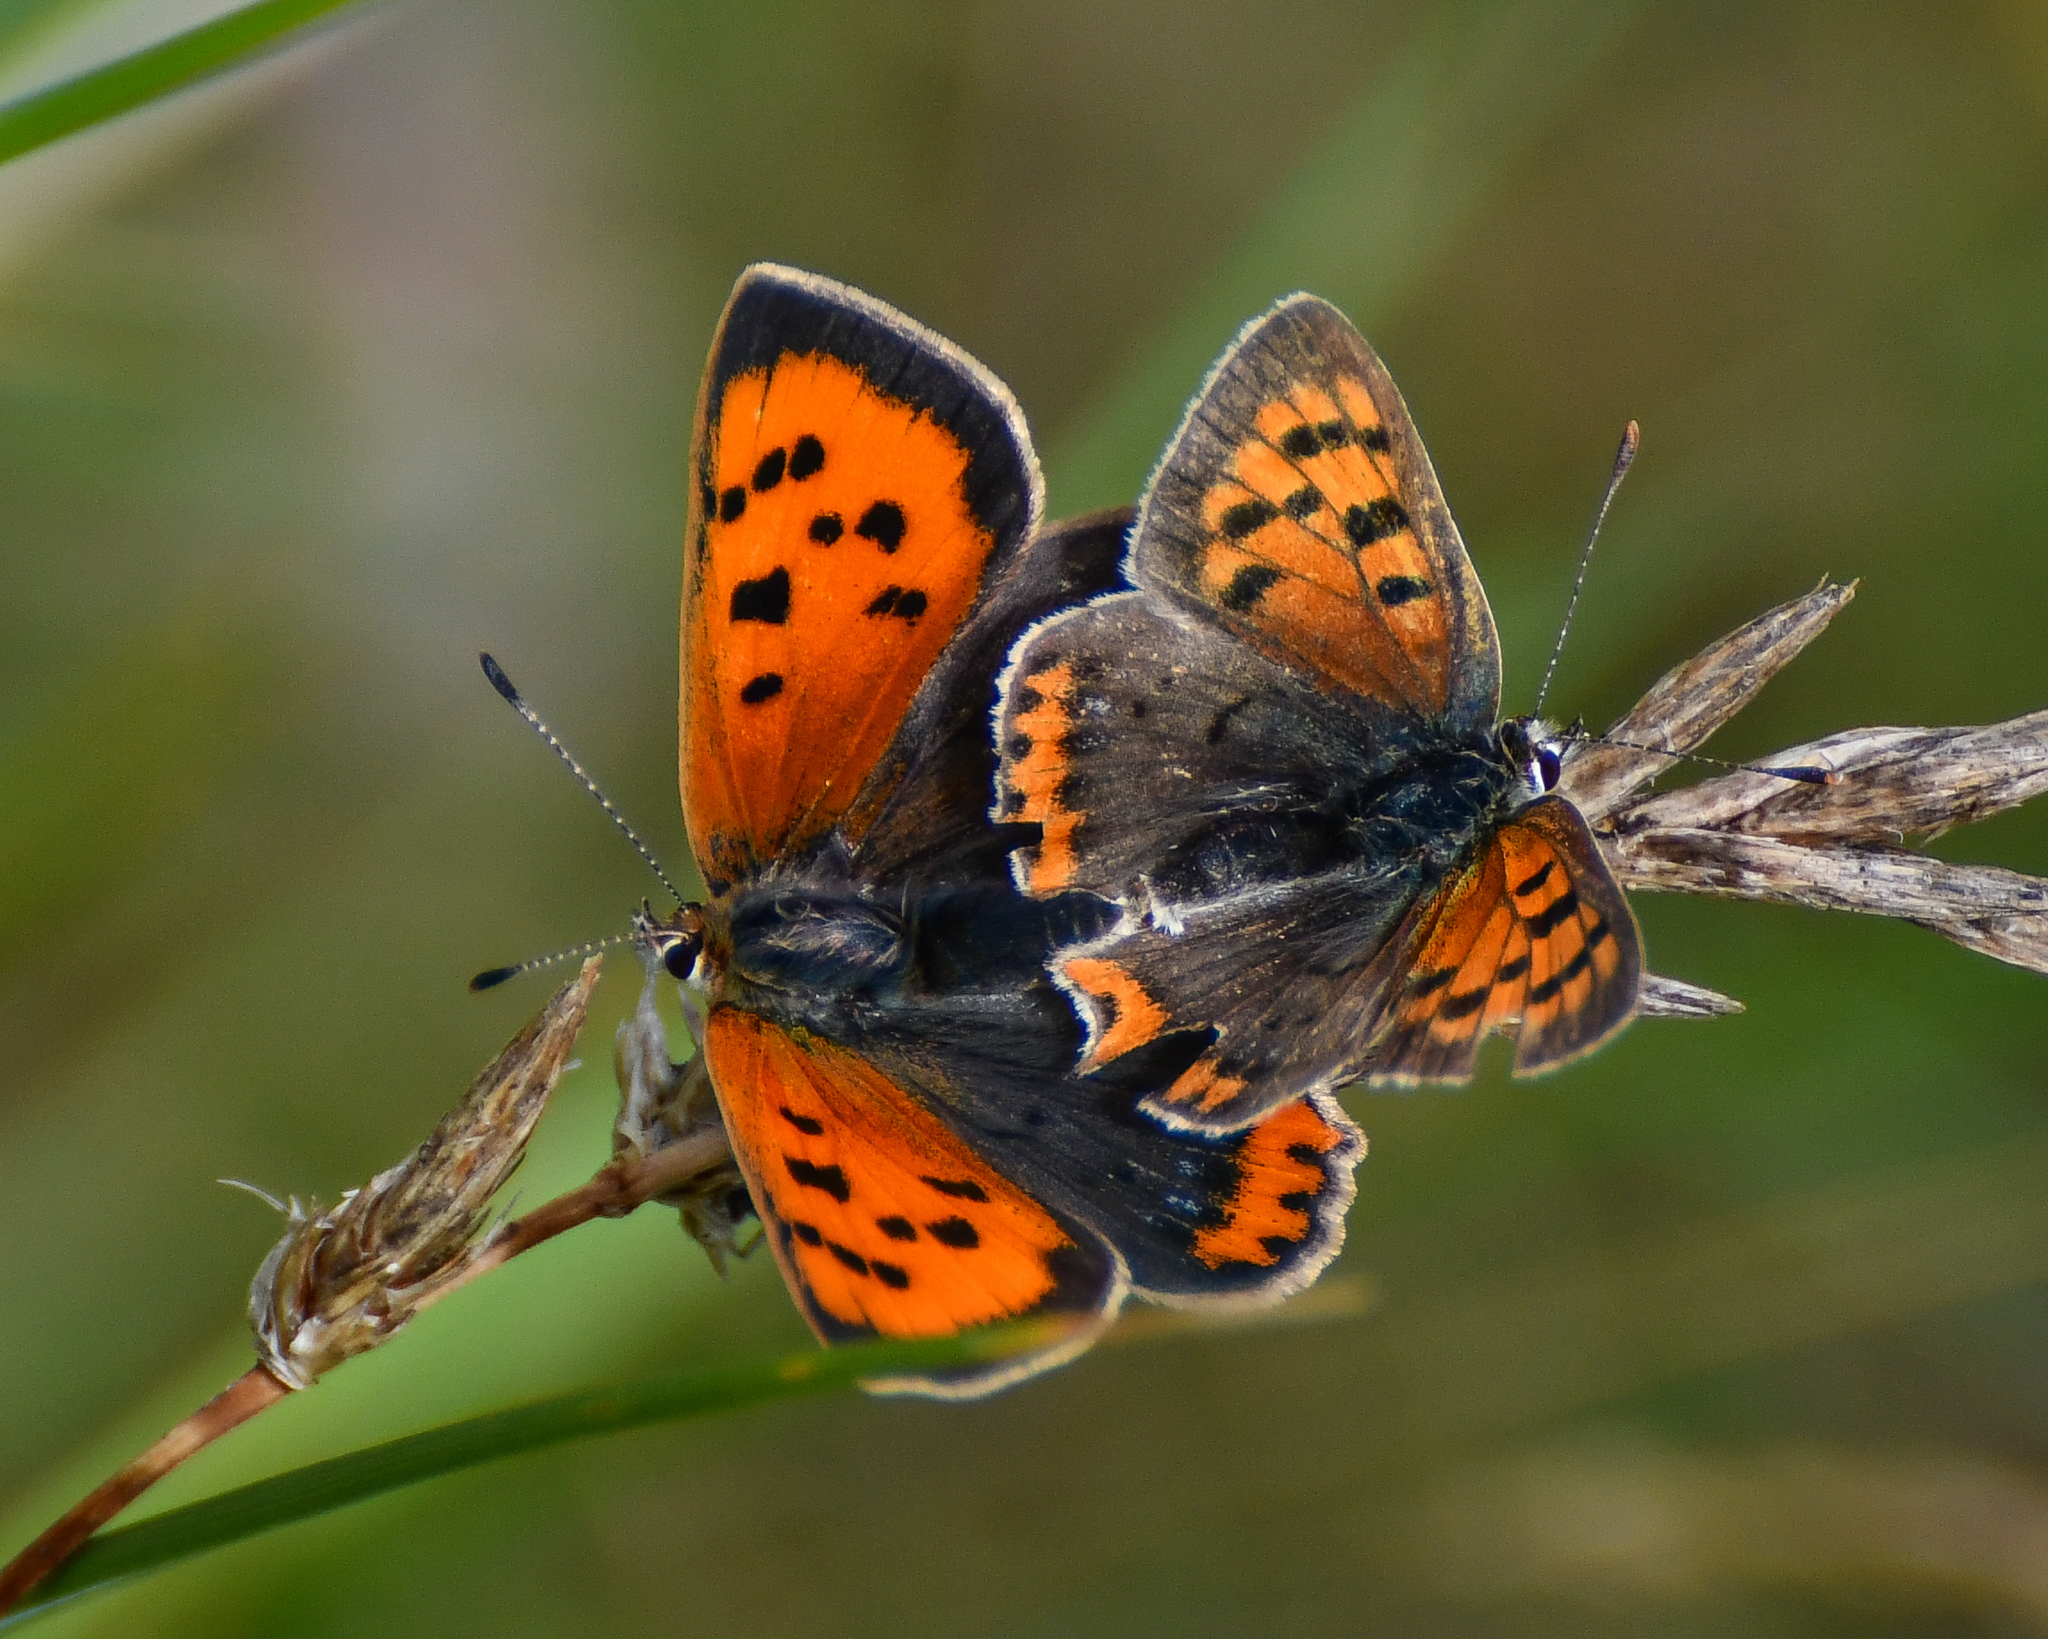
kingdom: Animalia
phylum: Arthropoda
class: Insecta
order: Lepidoptera
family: Lycaenidae
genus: Lycaena
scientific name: Lycaena phlaeas
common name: Small copper
